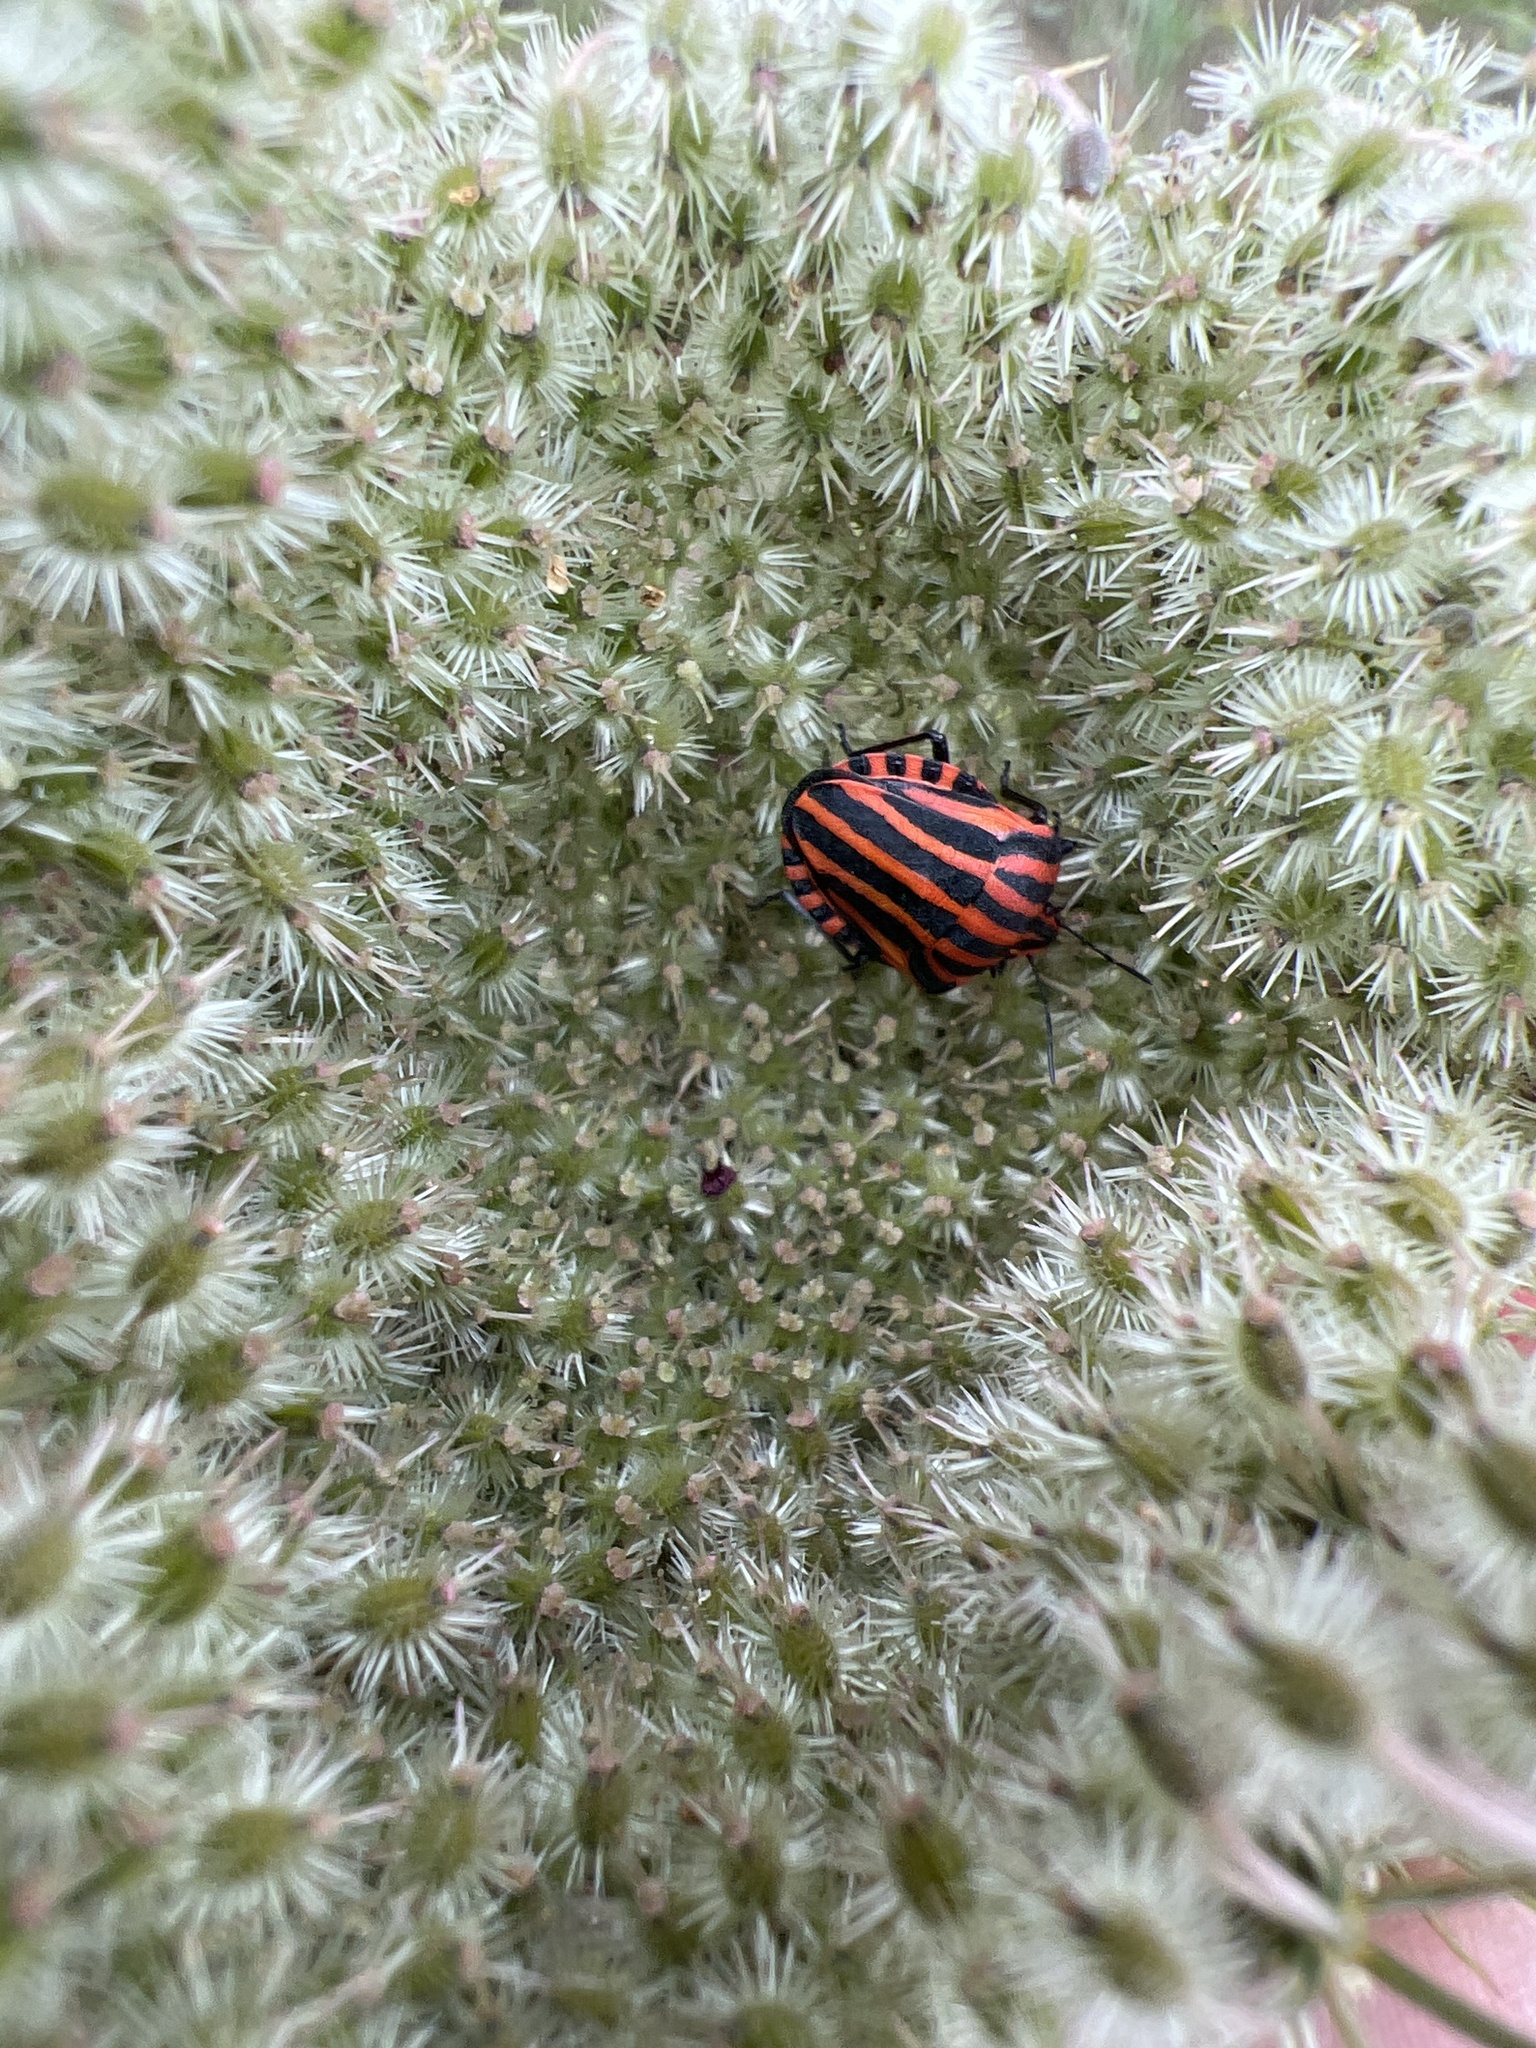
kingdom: Animalia
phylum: Arthropoda
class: Insecta
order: Hemiptera
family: Pentatomidae
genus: Graphosoma
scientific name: Graphosoma italicum
